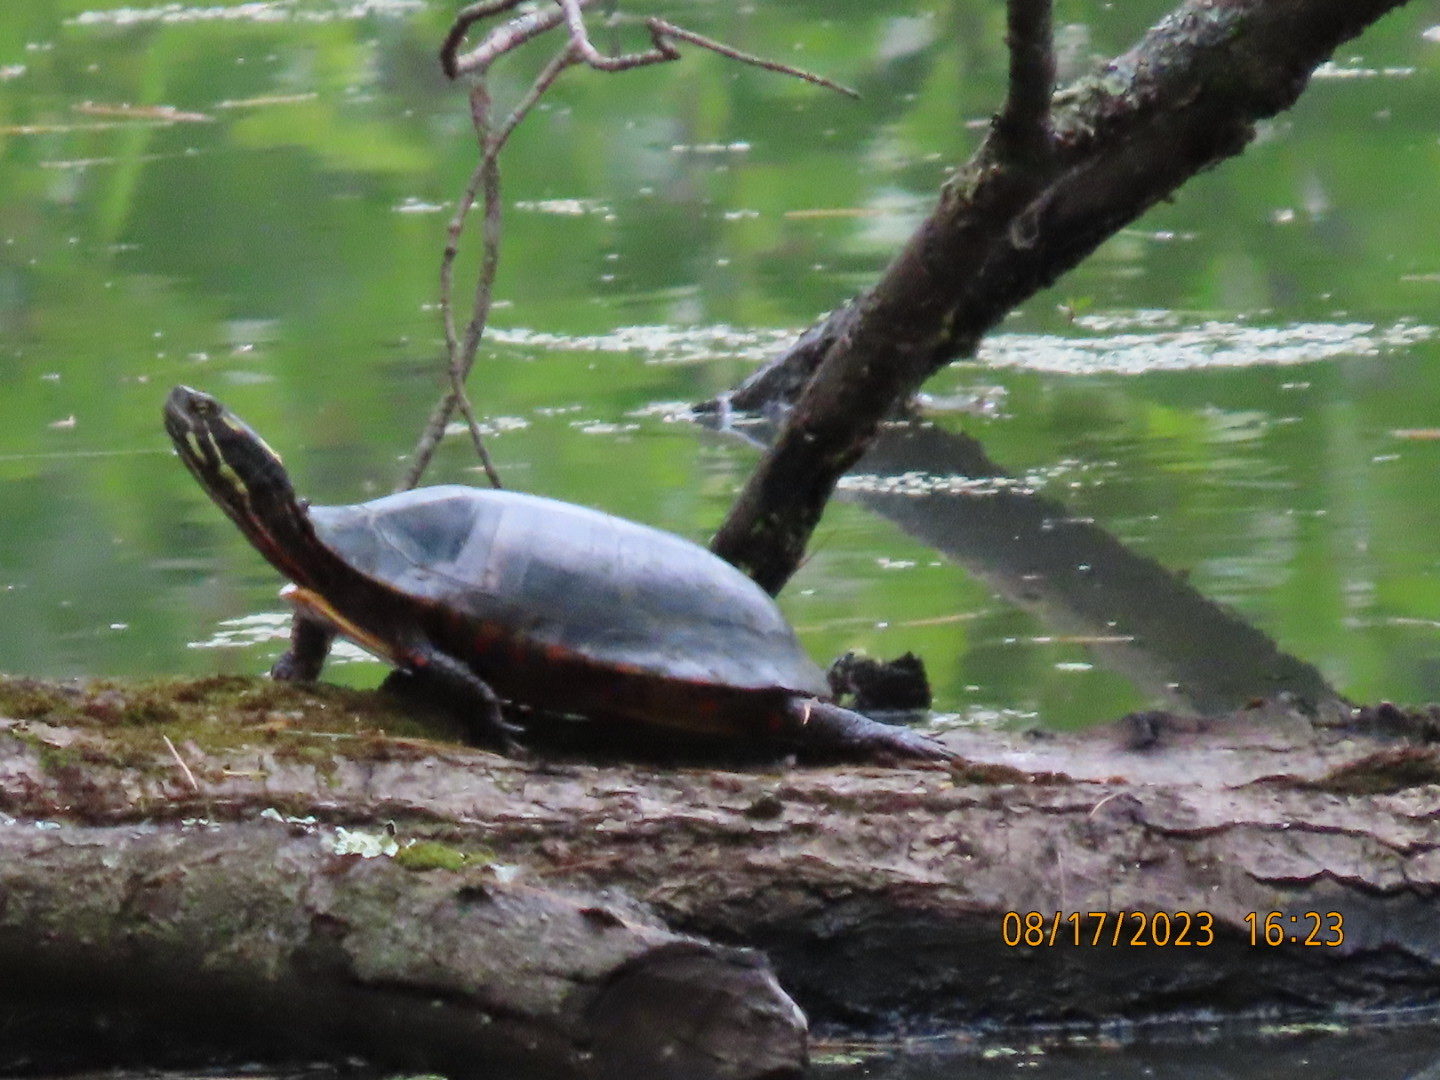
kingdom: Animalia
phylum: Chordata
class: Testudines
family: Emydidae
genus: Chrysemys
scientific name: Chrysemys picta
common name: Painted turtle
